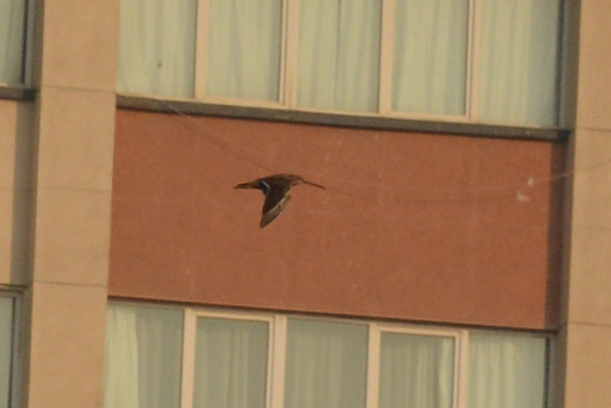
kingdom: Animalia
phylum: Chordata
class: Aves
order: Charadriiformes
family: Scolopacidae
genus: Gallinago
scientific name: Gallinago gallinago
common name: Common snipe
